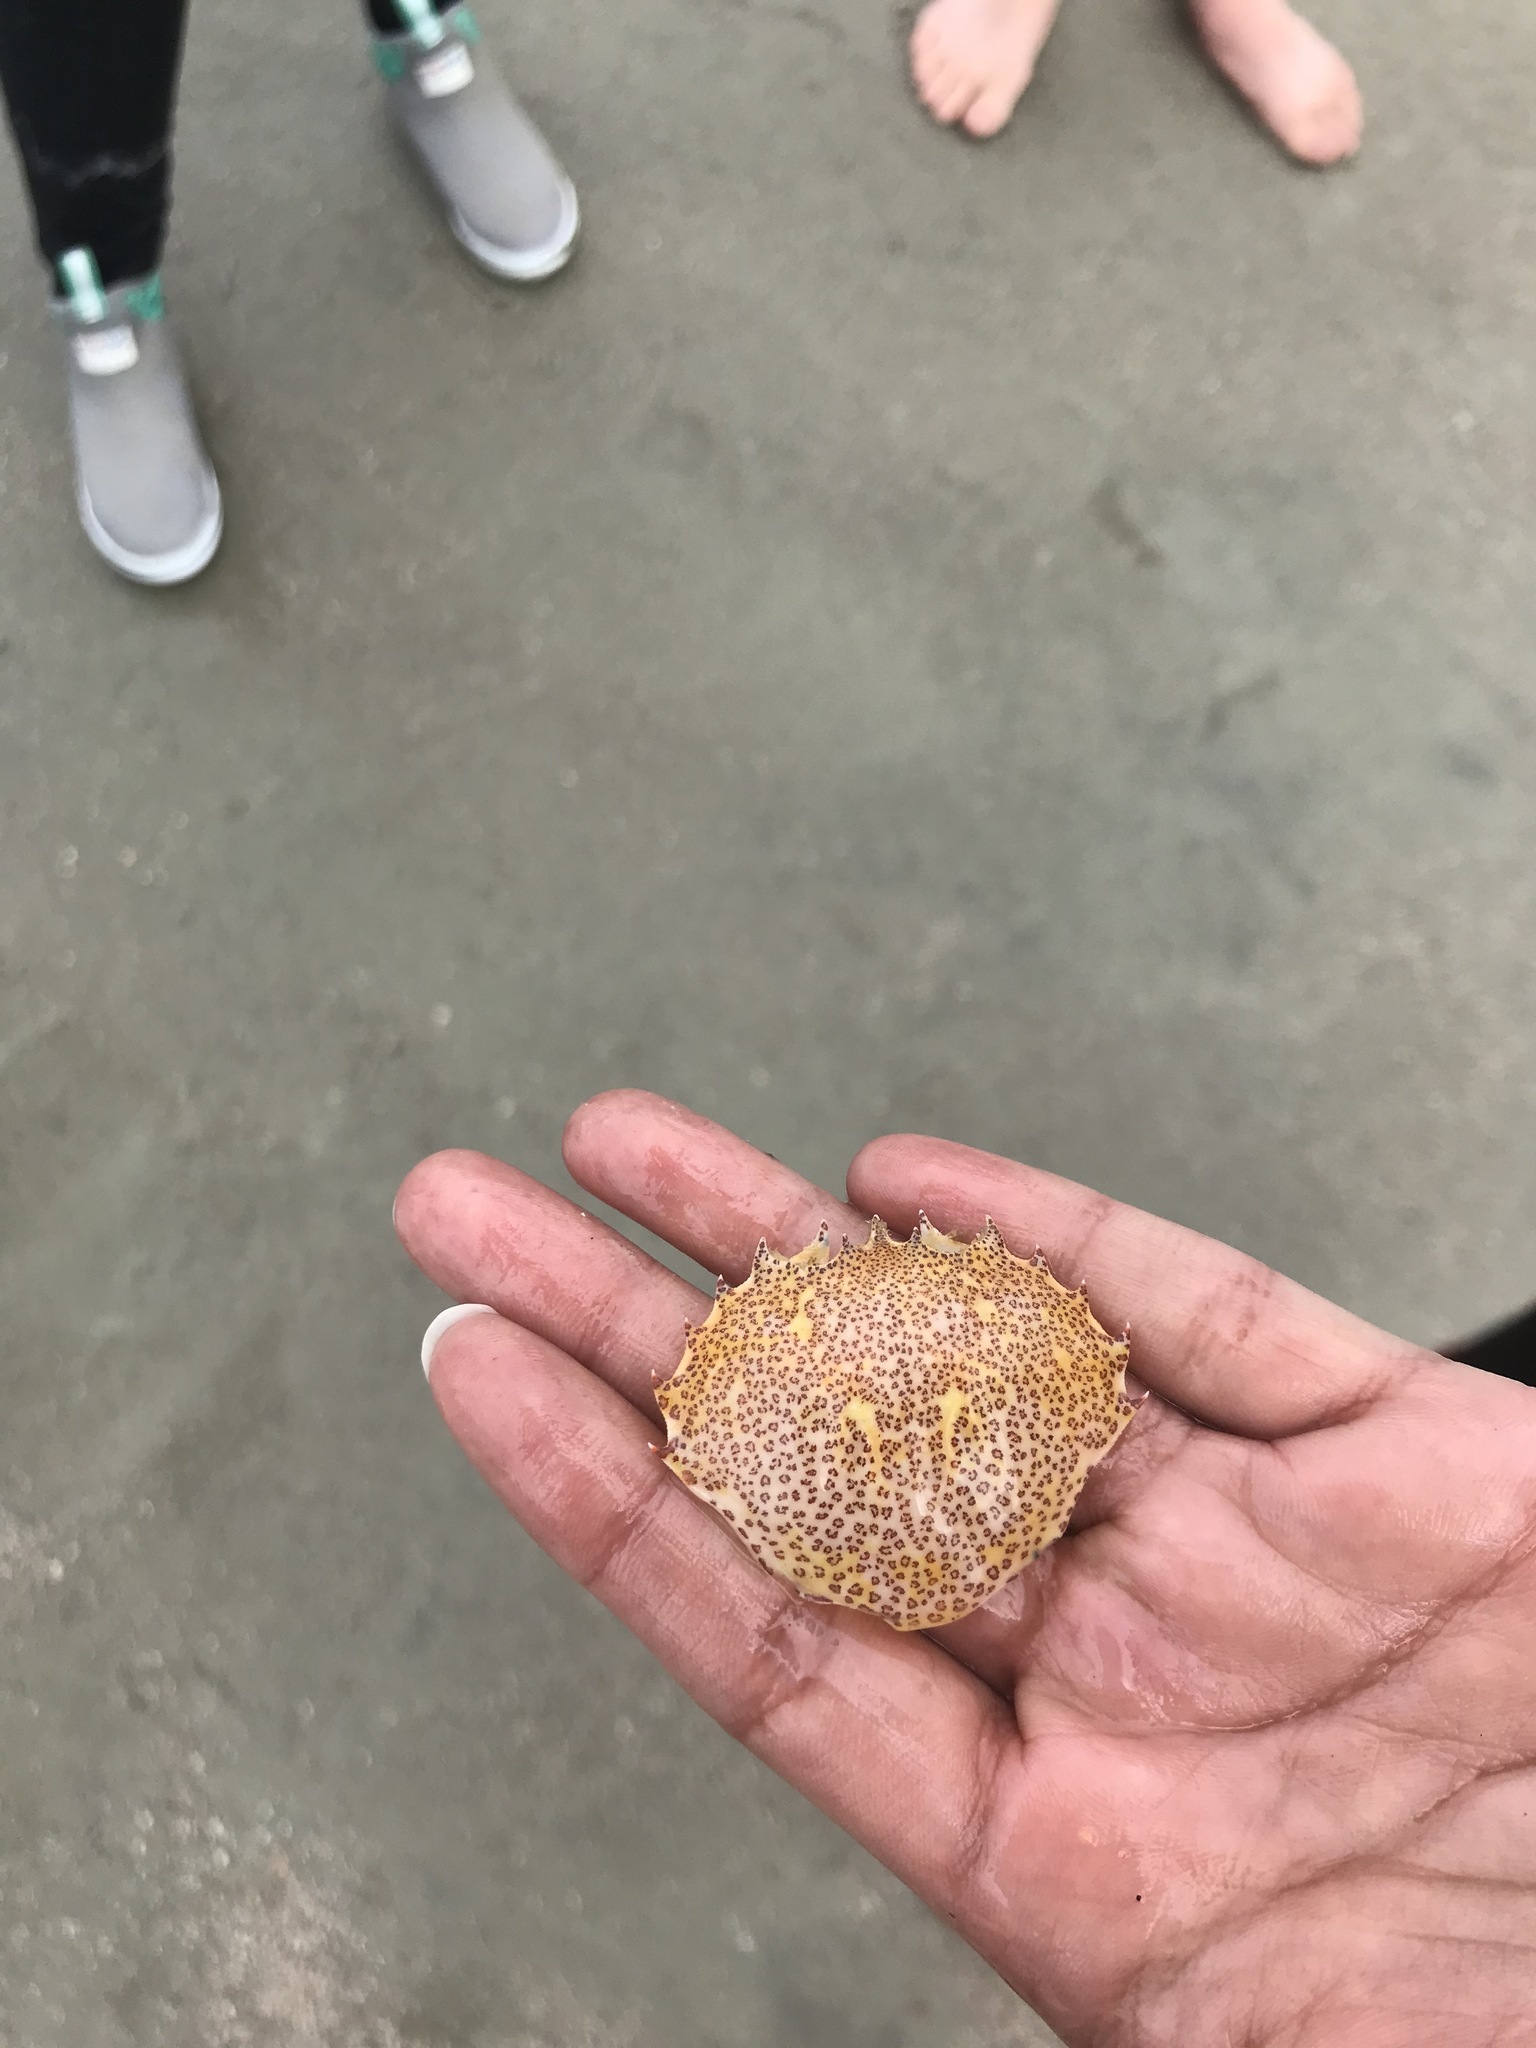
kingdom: Animalia
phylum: Arthropoda
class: Malacostraca
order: Decapoda
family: Ovalipidae
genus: Ovalipes
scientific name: Ovalipes ocellatus
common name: Lady crab
